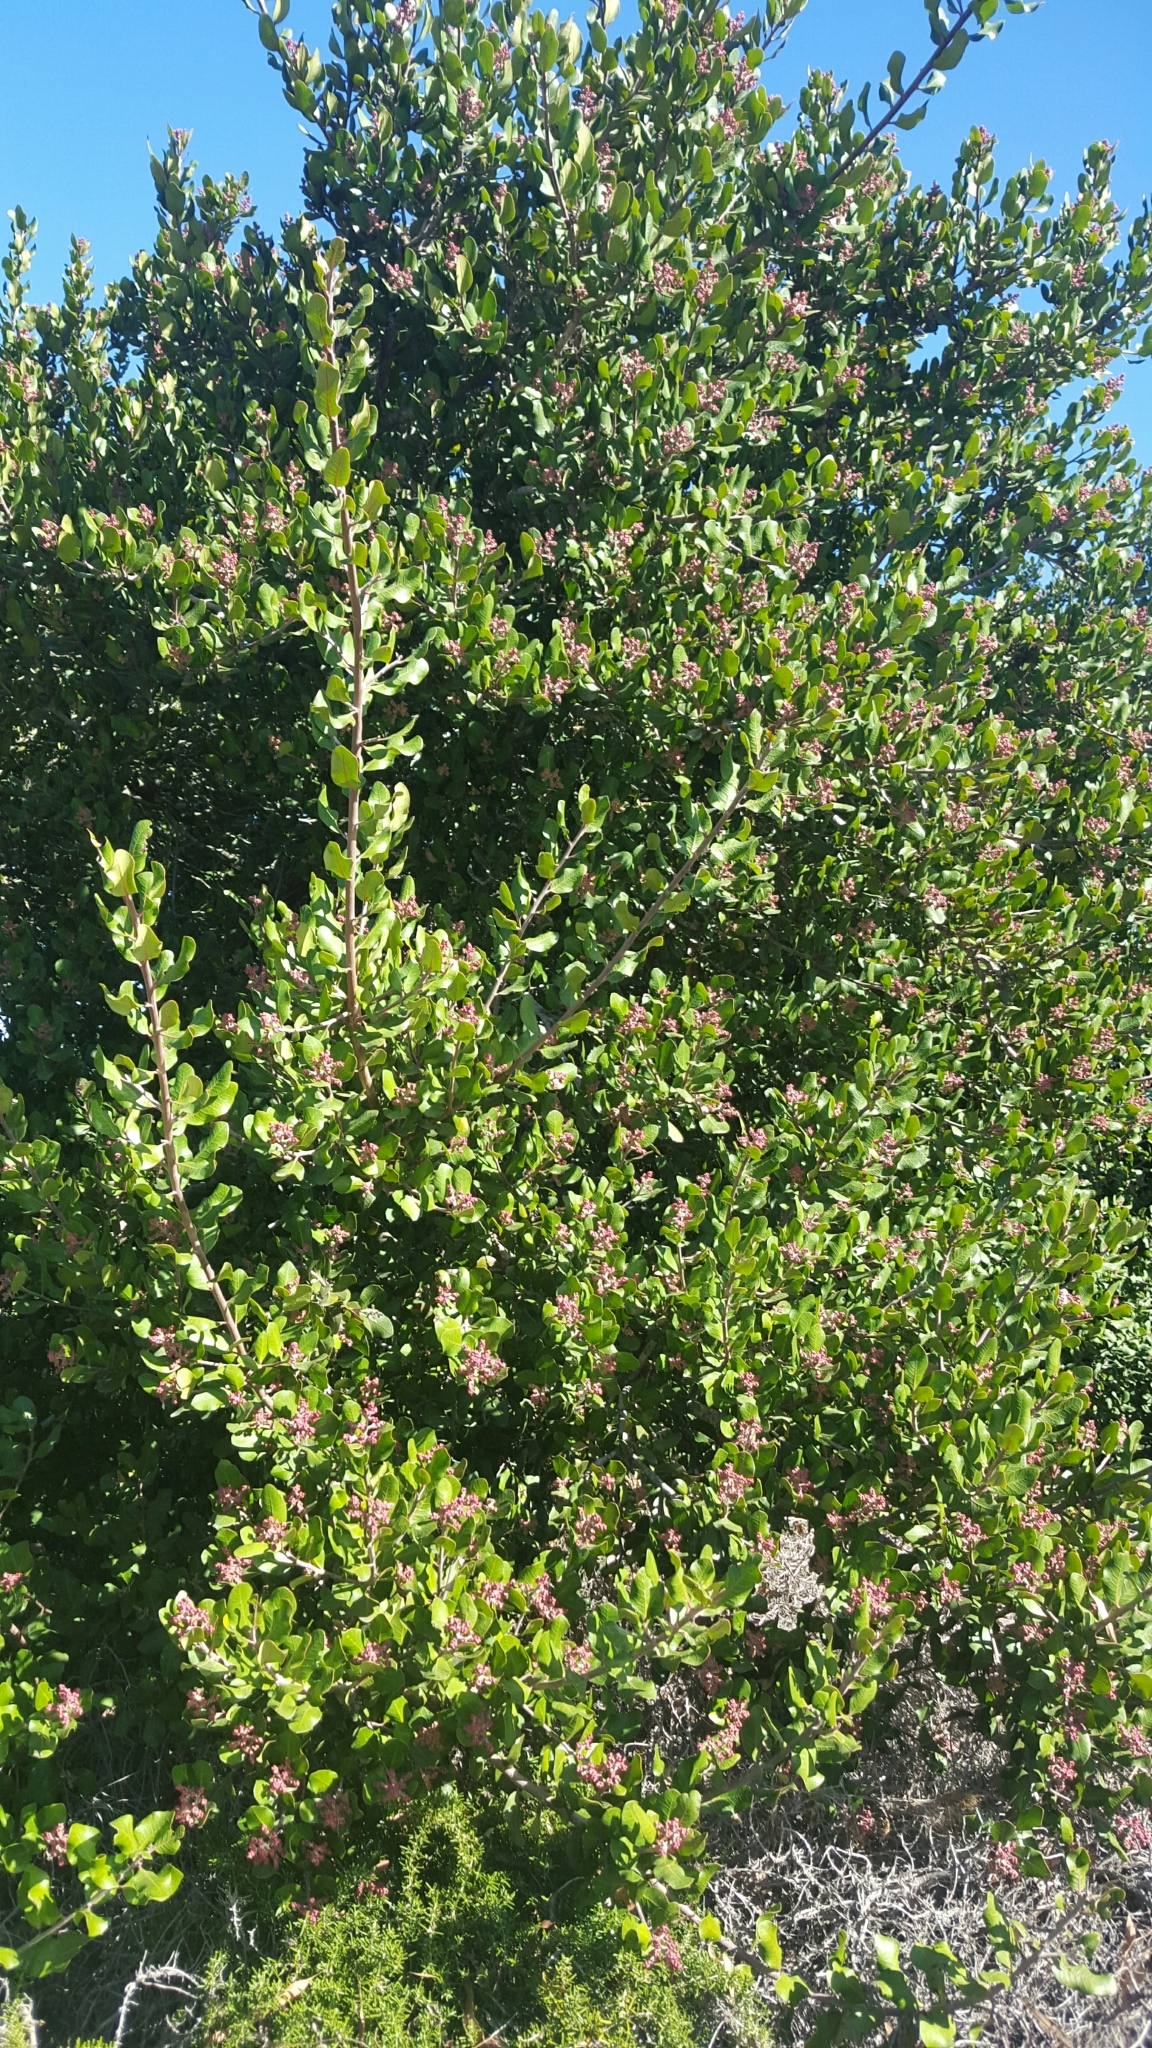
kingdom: Plantae
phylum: Tracheophyta
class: Magnoliopsida
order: Sapindales
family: Anacardiaceae
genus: Rhus
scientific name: Rhus integrifolia
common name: Lemonade sumac
